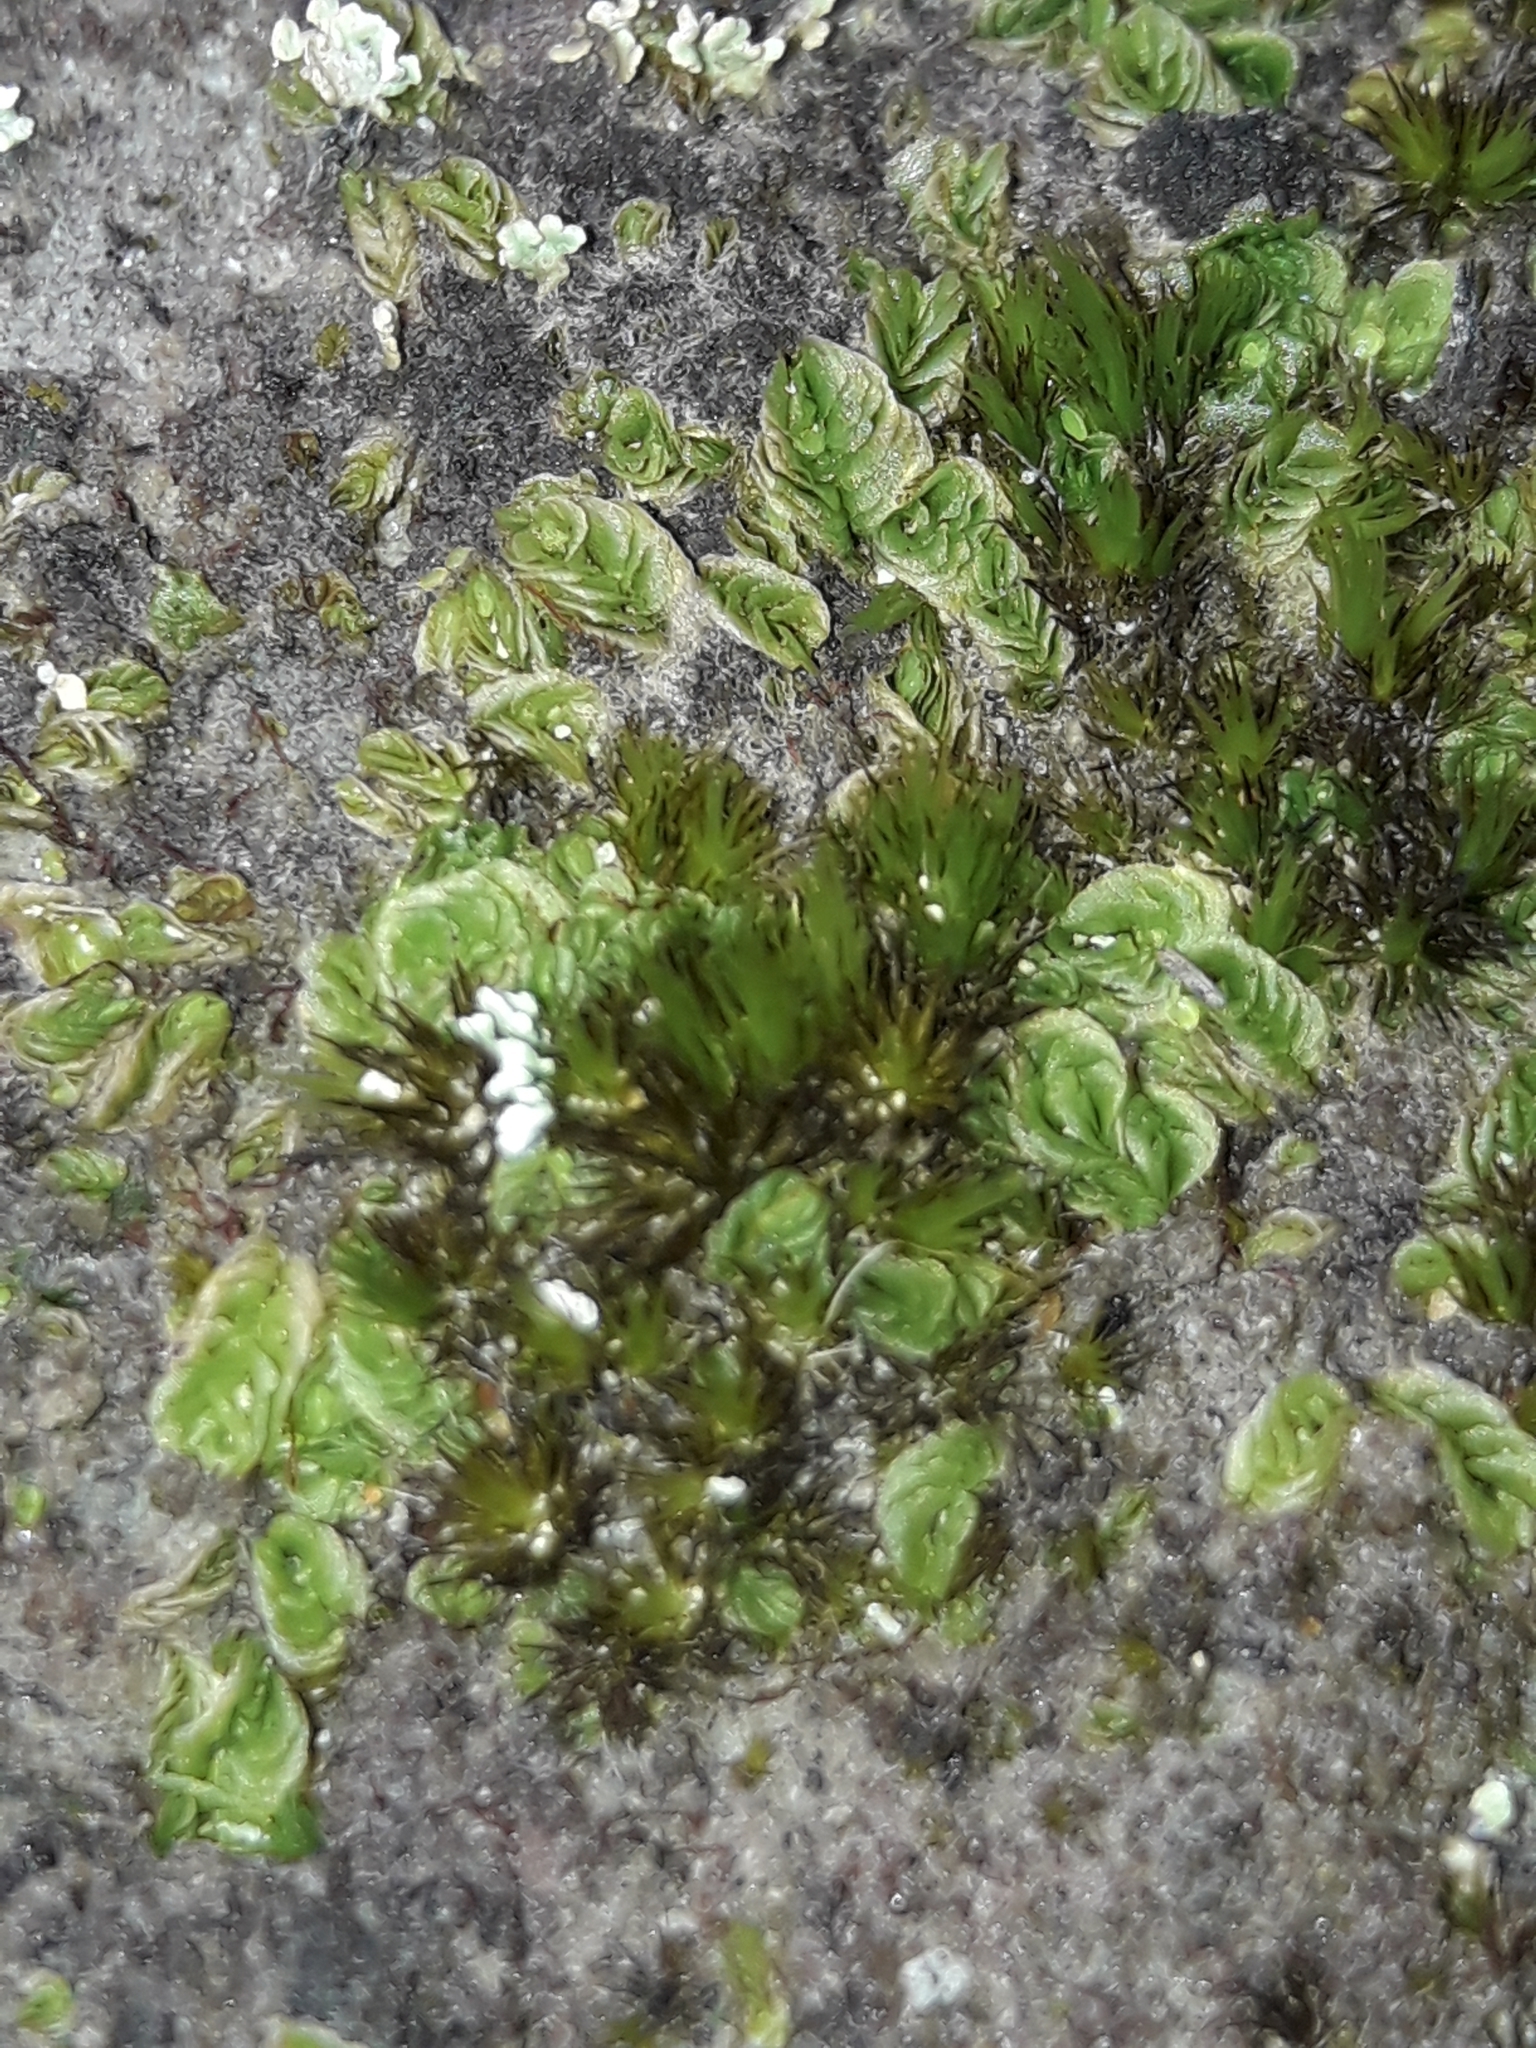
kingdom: Plantae
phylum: Marchantiophyta
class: Jungermanniopsida
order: Jungermanniales
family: Acrobolbaceae
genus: Lethocolea
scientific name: Lethocolea pansa
